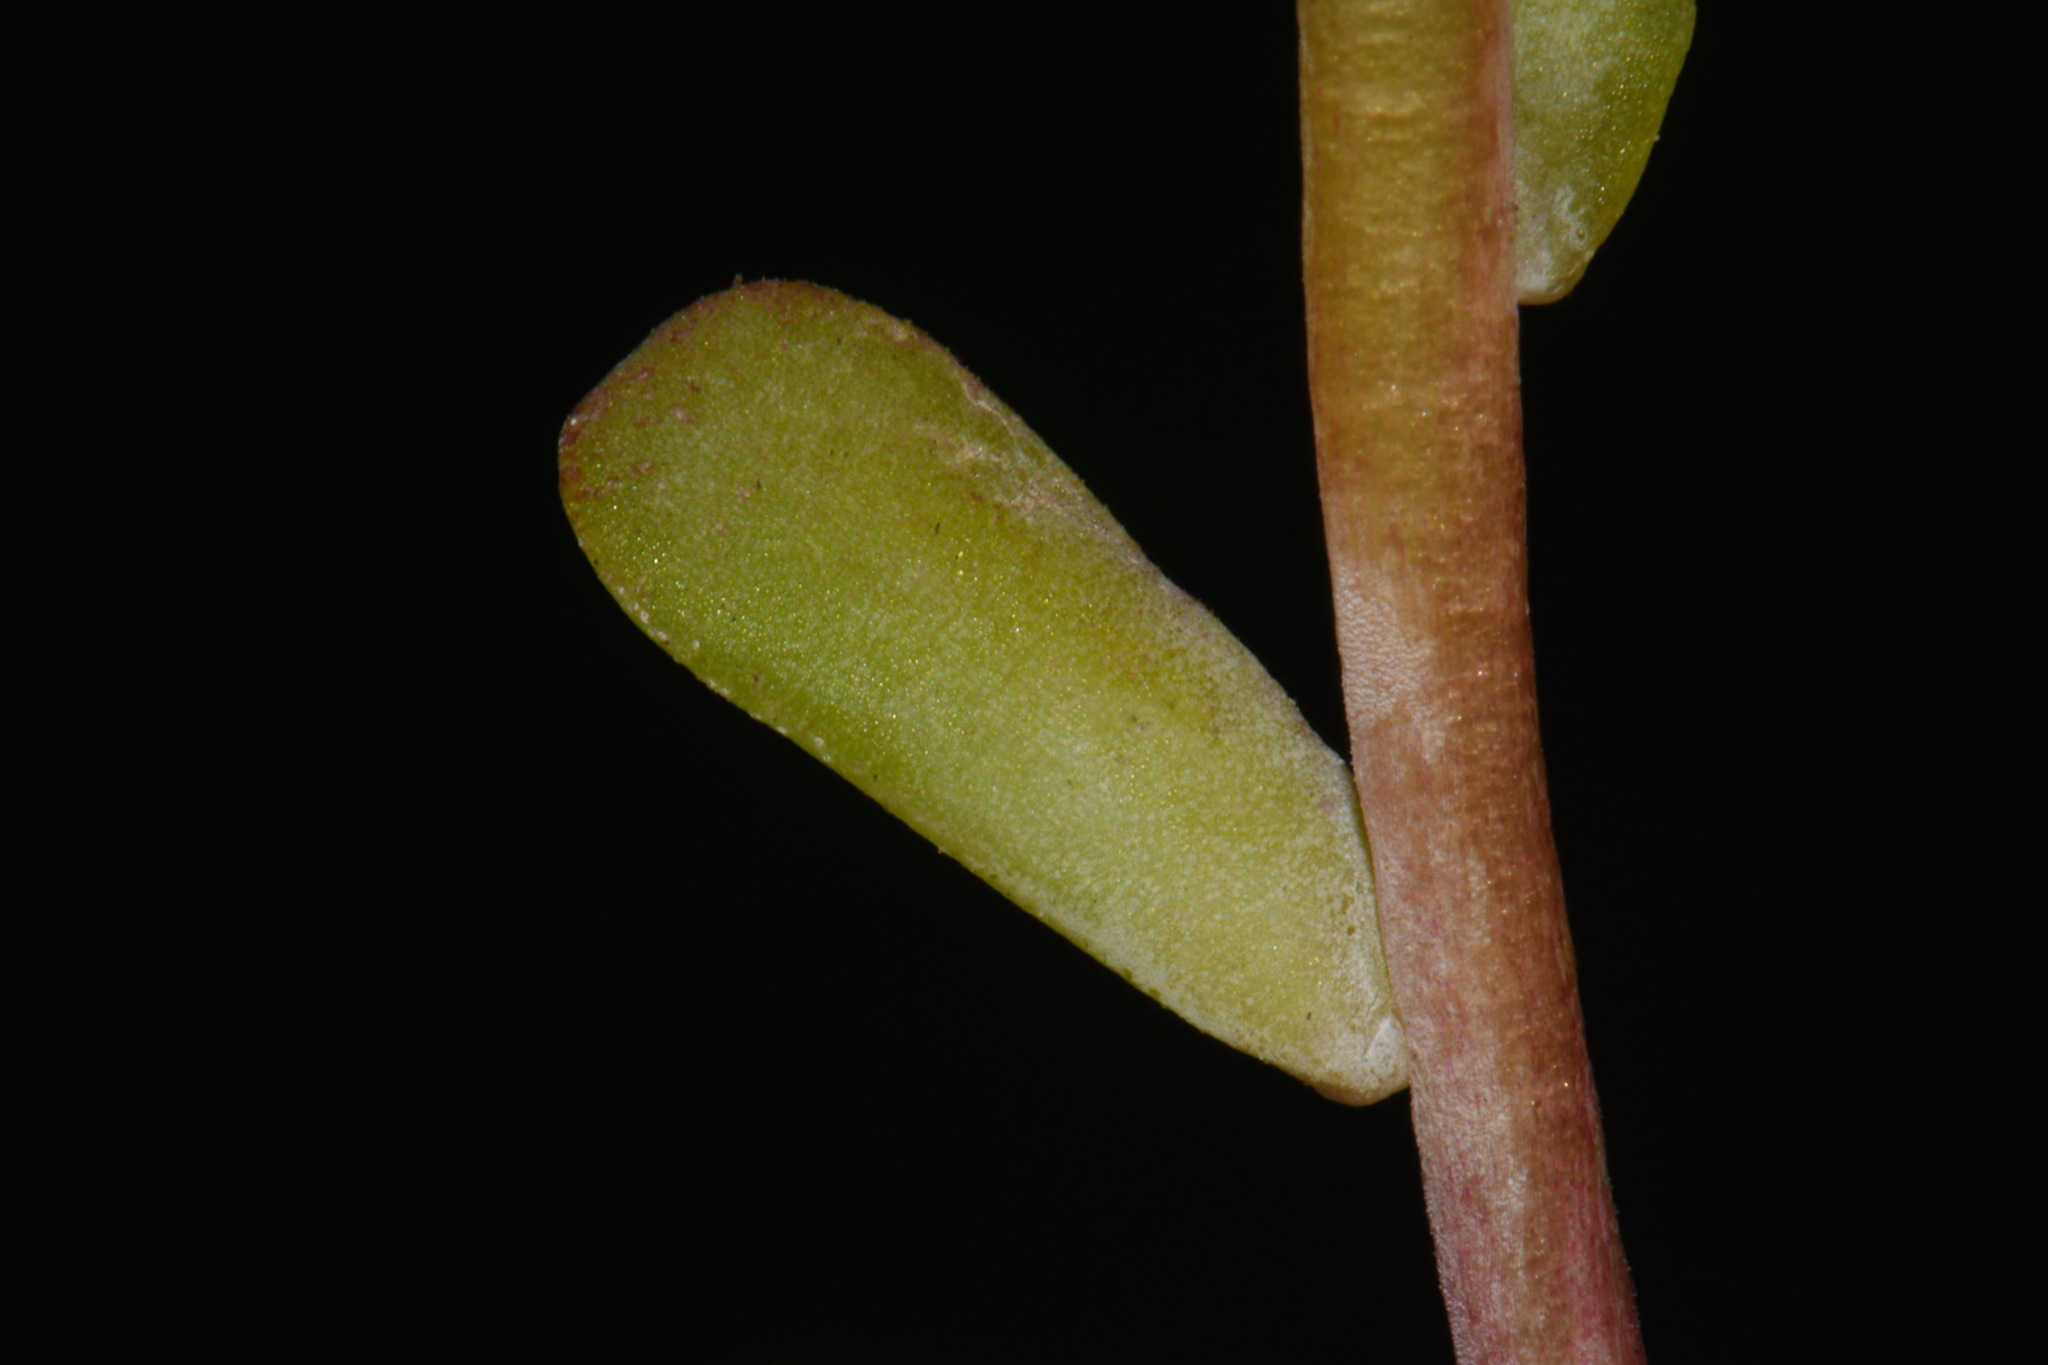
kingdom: Plantae
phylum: Tracheophyta
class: Magnoliopsida
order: Saxifragales
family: Crassulaceae
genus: Sedum
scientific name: Sedum spathulifolium
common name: Colorado stonecrop
